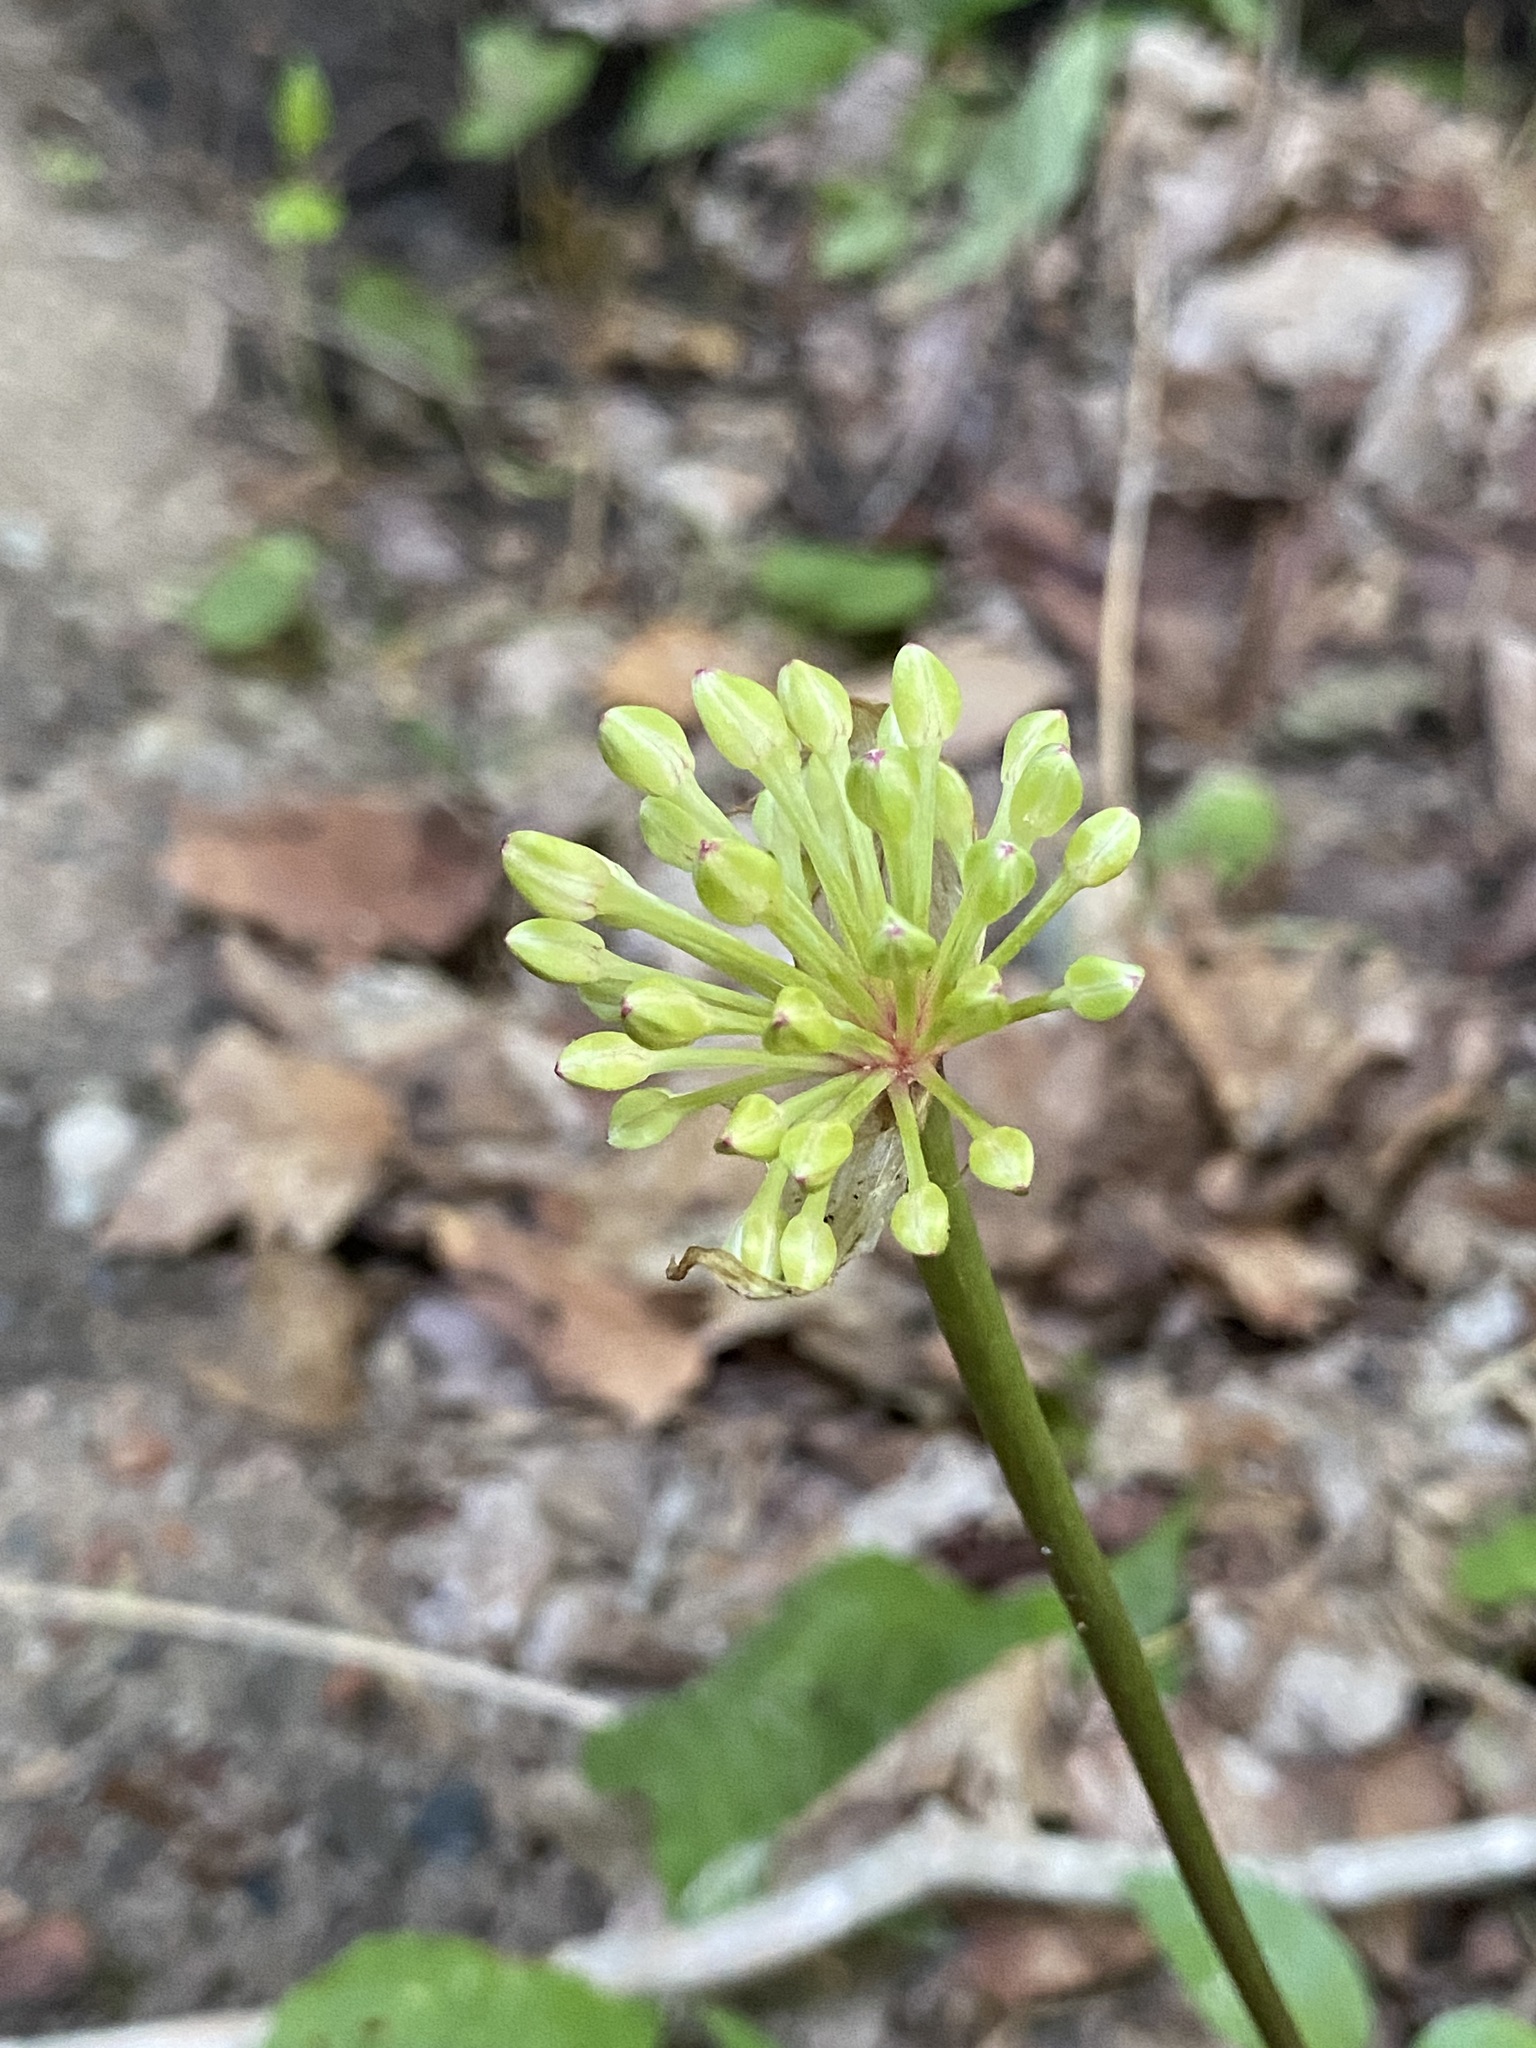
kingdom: Plantae
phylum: Tracheophyta
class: Liliopsida
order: Asparagales
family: Amaryllidaceae
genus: Allium
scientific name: Allium tricoccum
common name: Ramp
